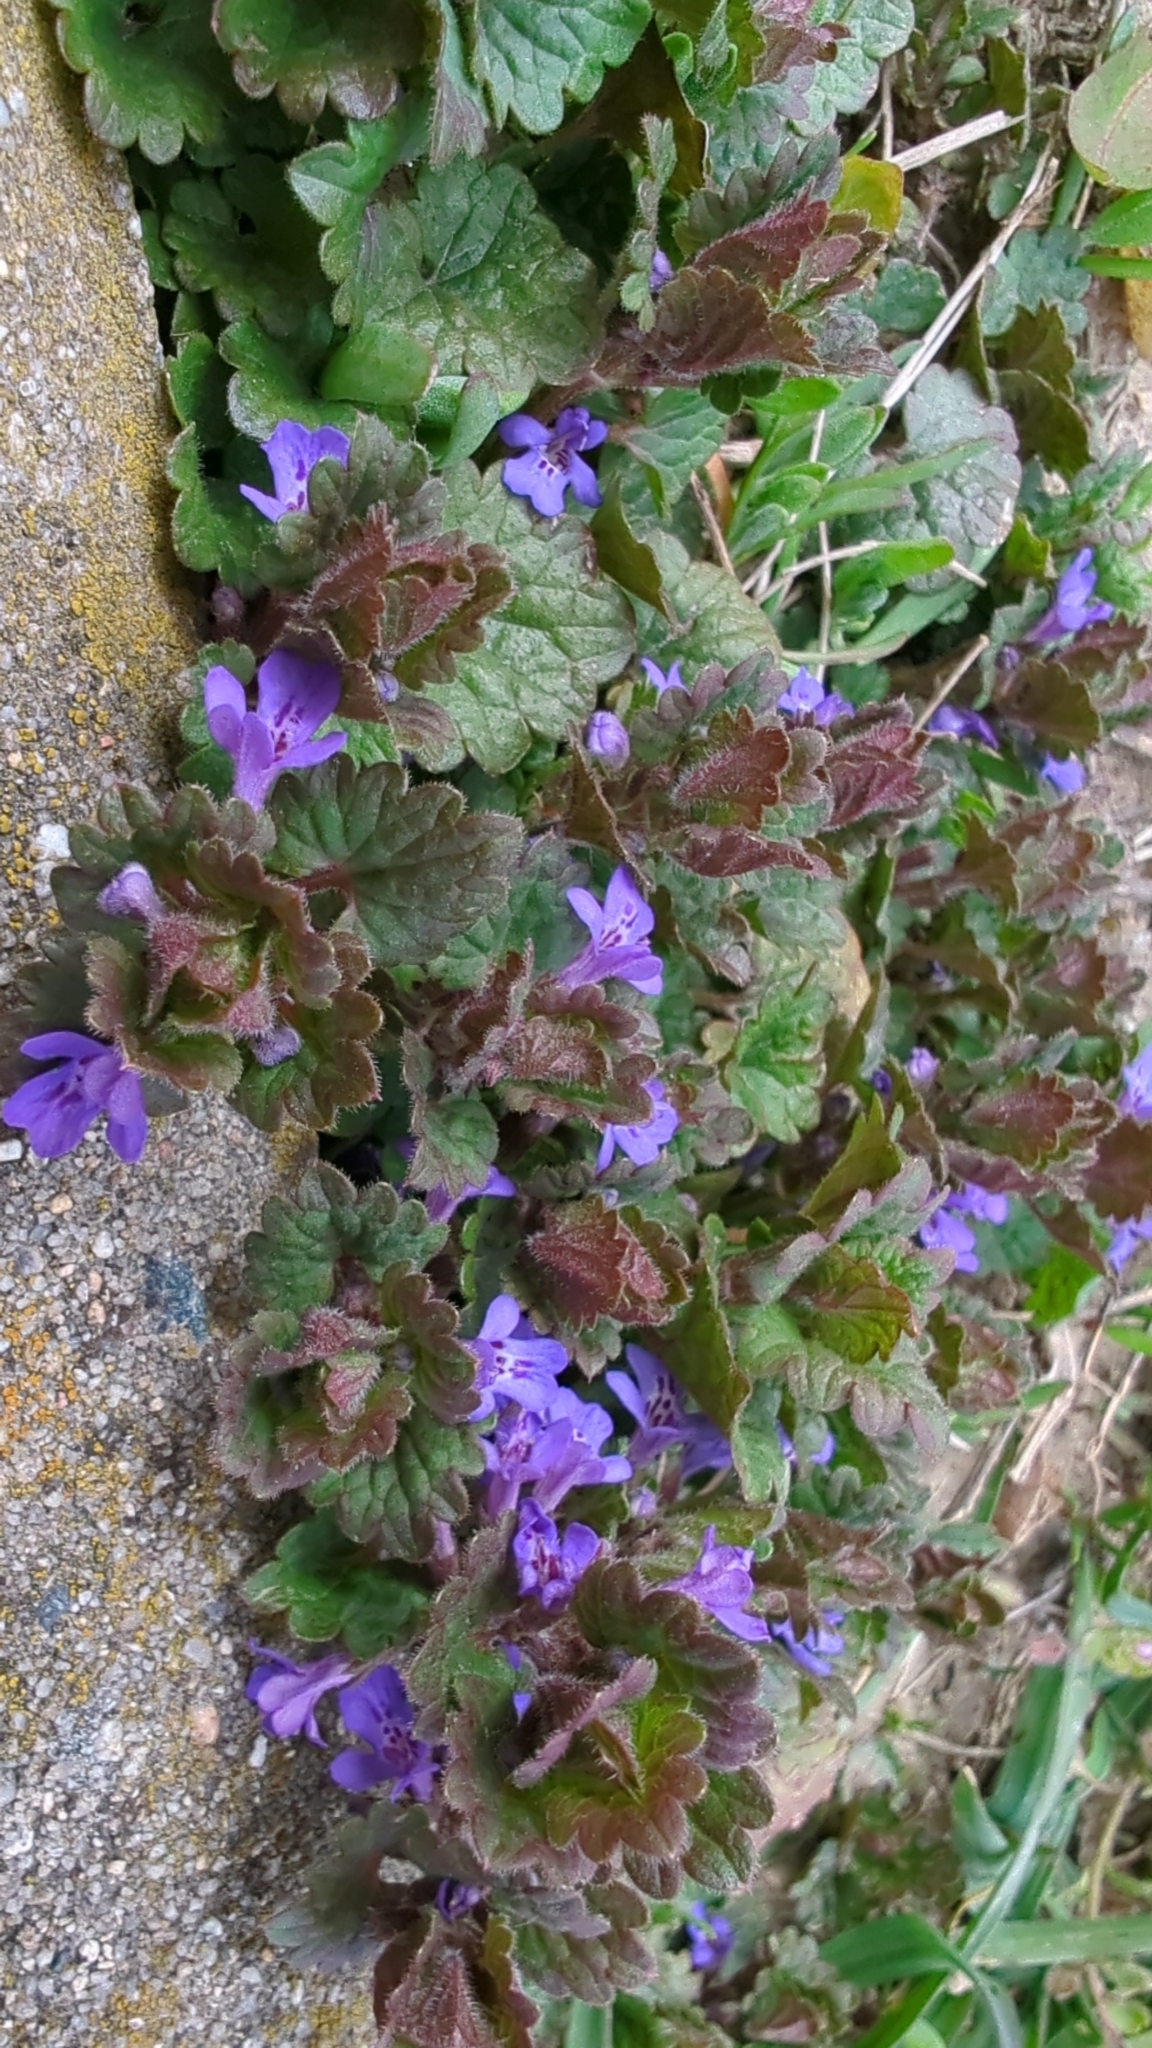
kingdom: Plantae
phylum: Tracheophyta
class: Magnoliopsida
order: Lamiales
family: Lamiaceae
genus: Glechoma
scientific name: Glechoma hederacea
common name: Ground ivy
